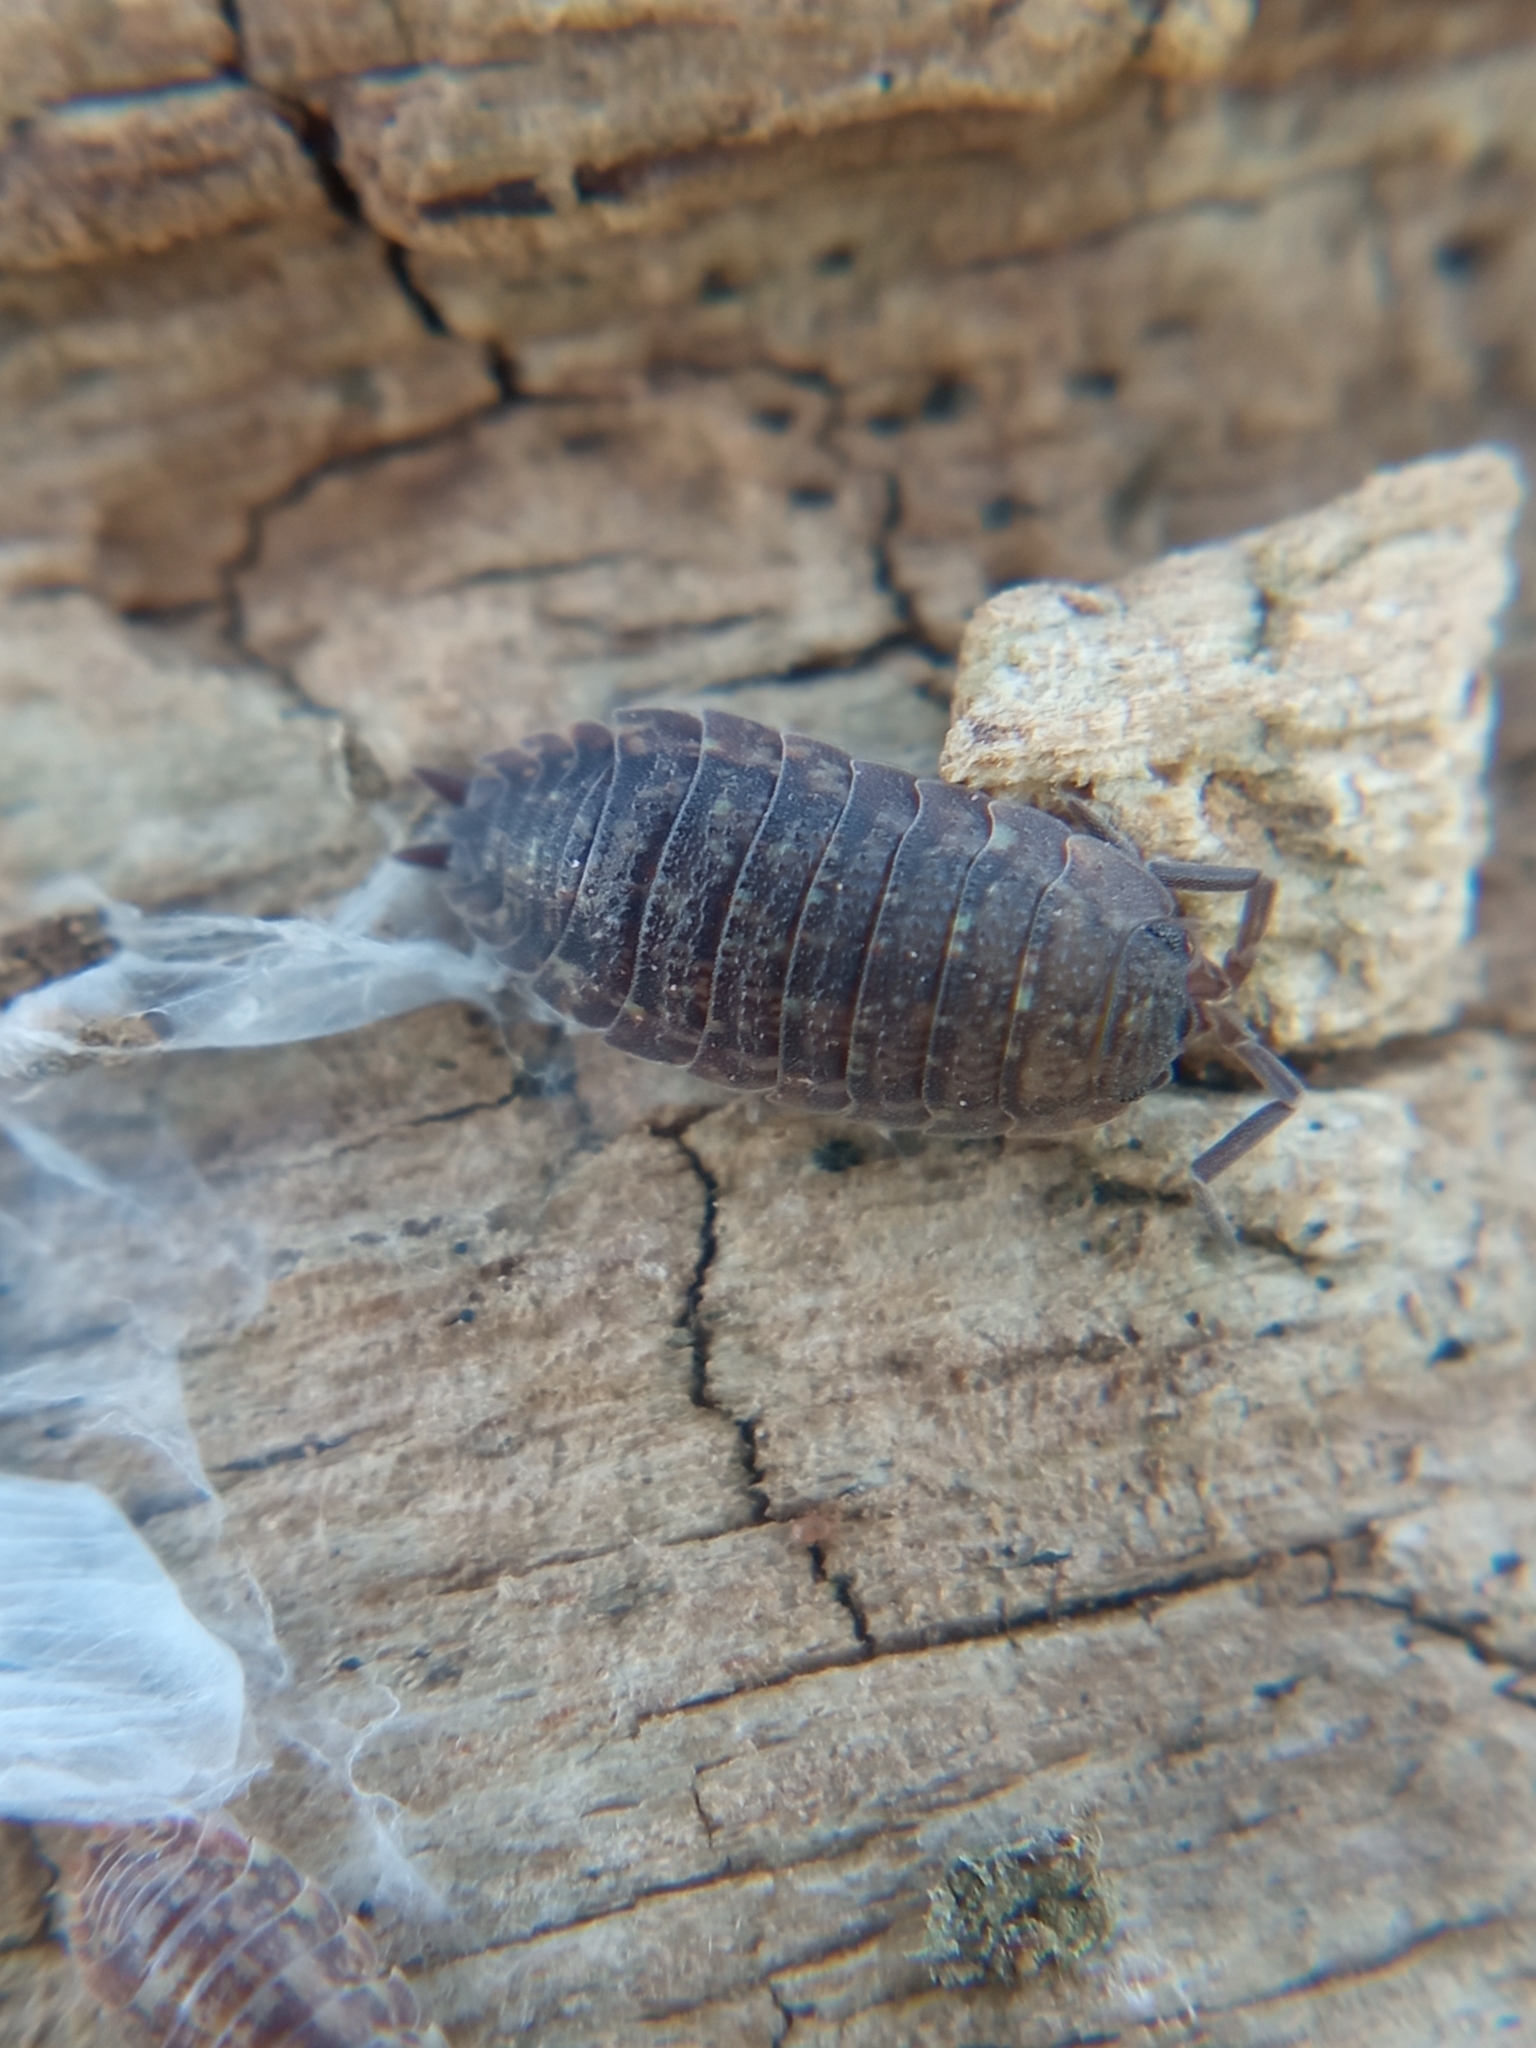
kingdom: Animalia
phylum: Arthropoda
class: Malacostraca
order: Isopoda
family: Porcellionidae
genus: Porcellio
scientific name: Porcellio scaber
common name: Common rough woodlouse
